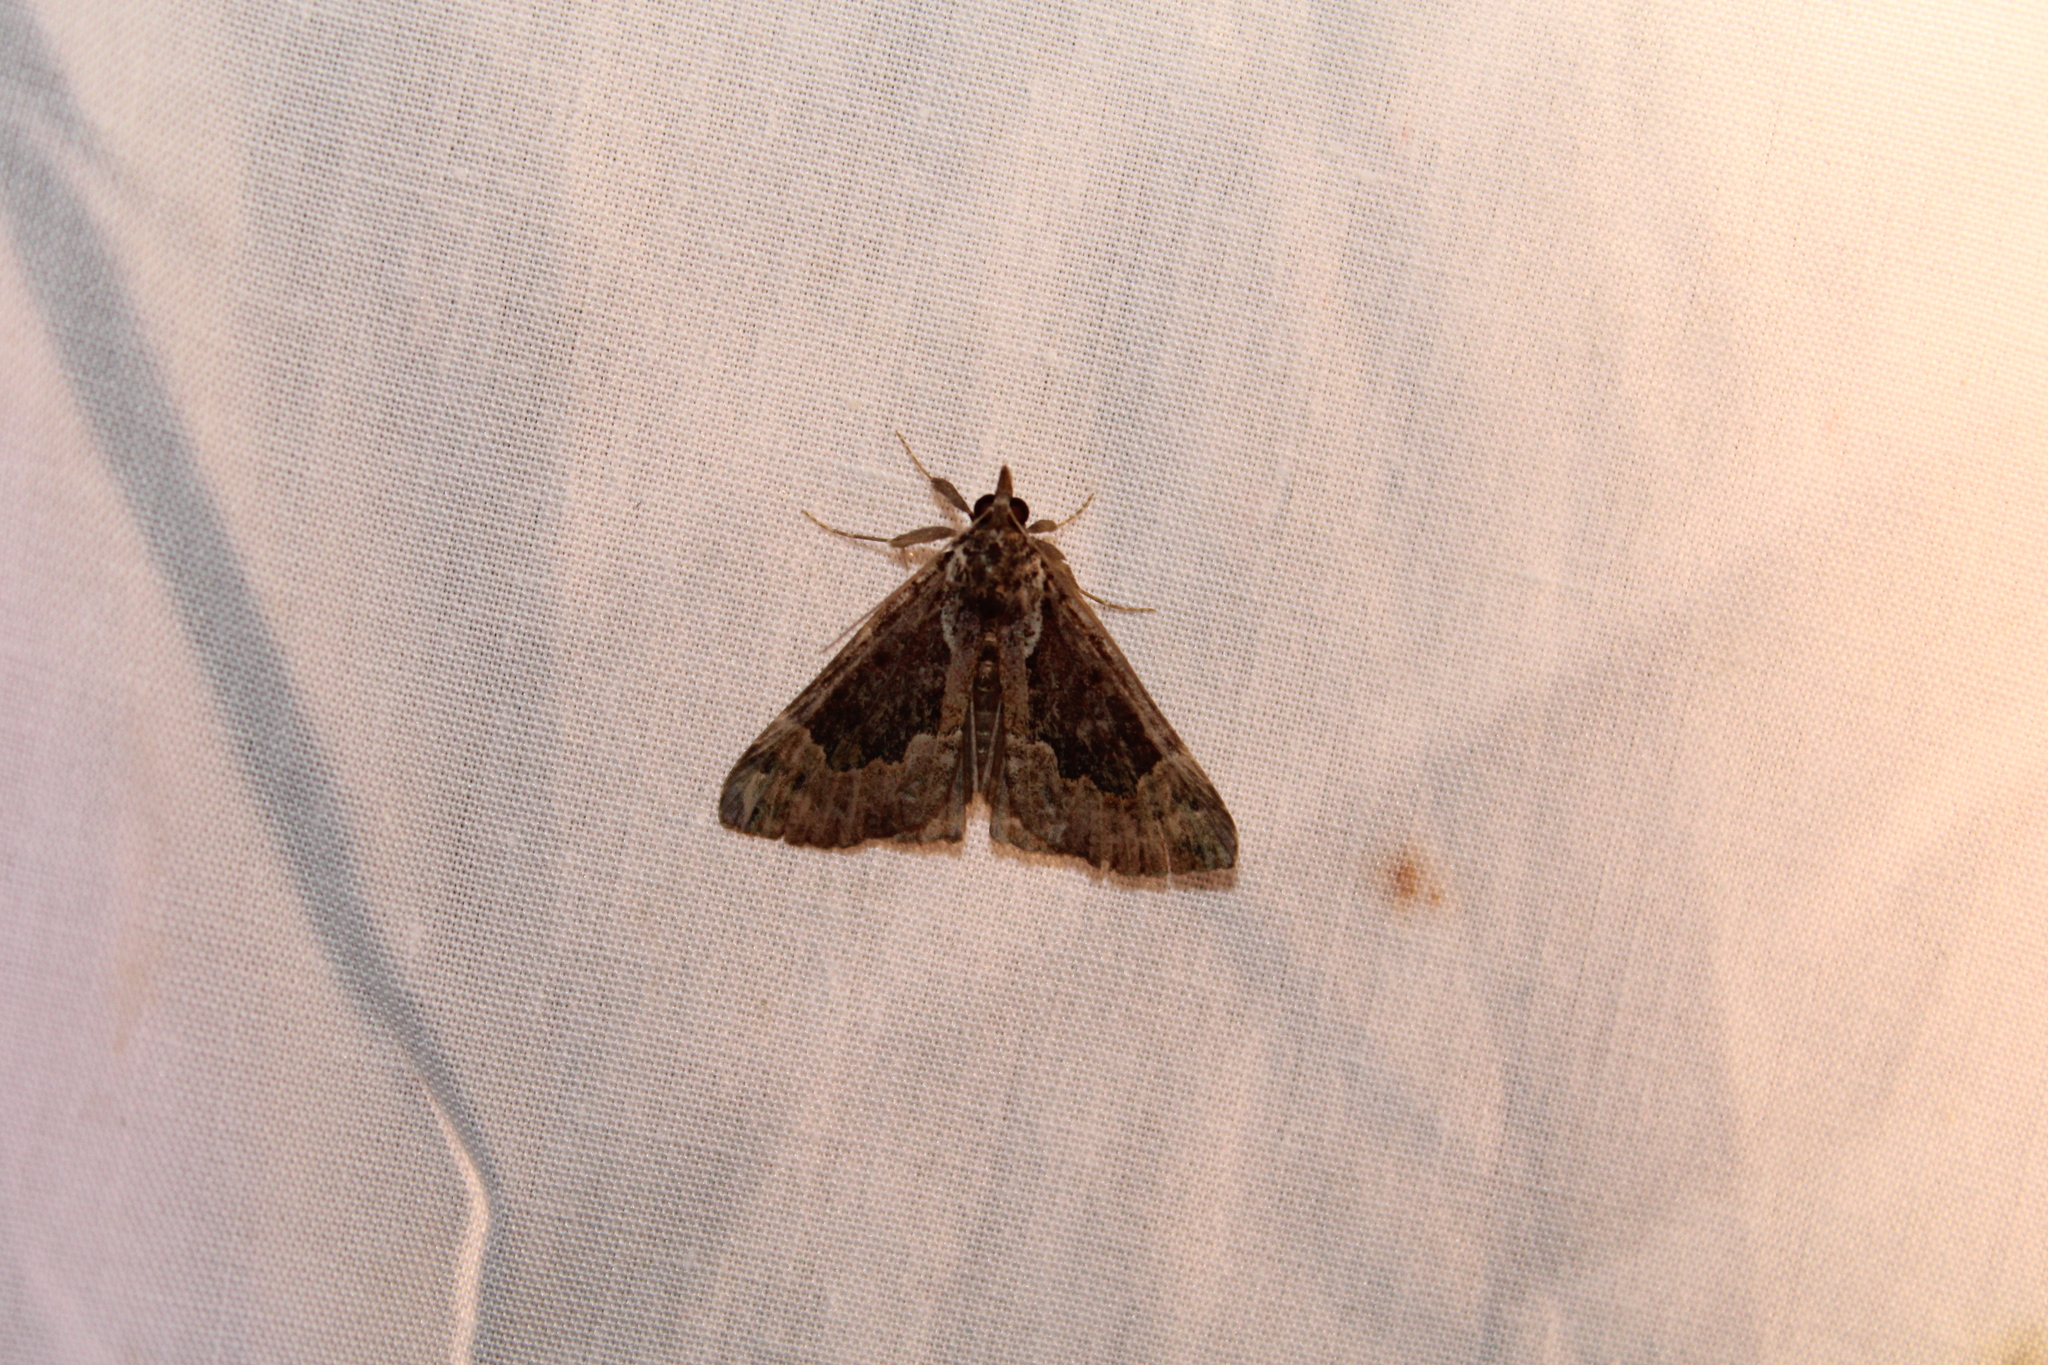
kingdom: Animalia
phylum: Arthropoda
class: Insecta
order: Lepidoptera
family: Erebidae
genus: Hypena
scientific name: Hypena baltimoralis
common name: Baltimore snout
